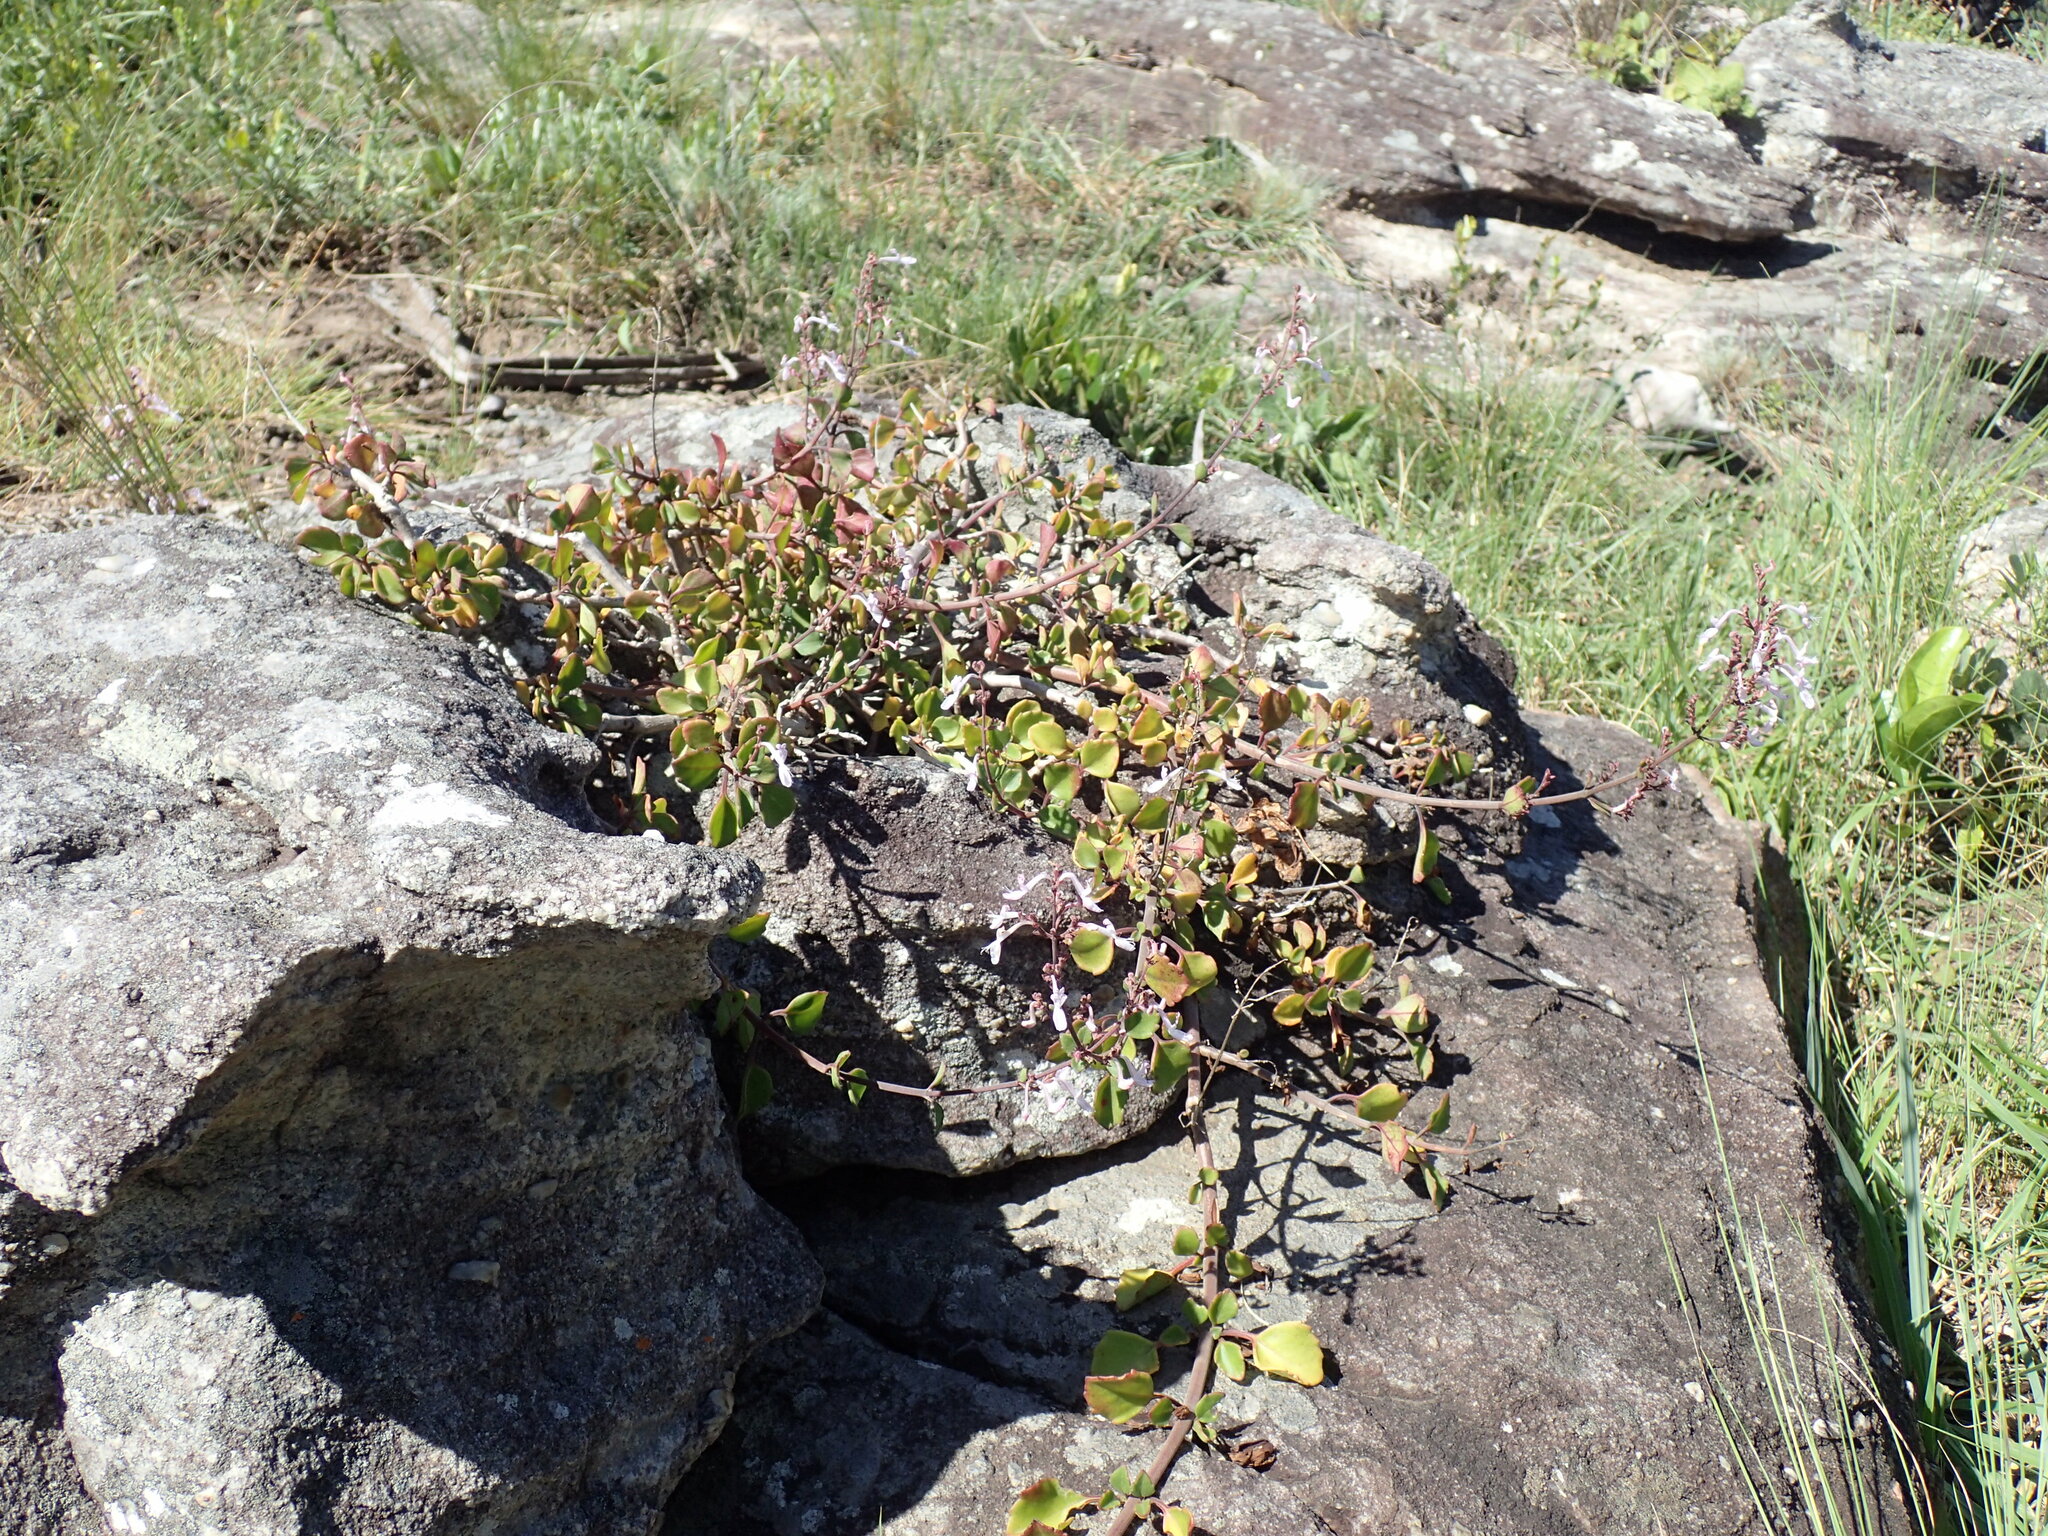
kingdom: Plantae
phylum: Tracheophyta
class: Magnoliopsida
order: Lamiales
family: Lamiaceae
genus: Aeollanthus
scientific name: Aeollanthus parvifolius
